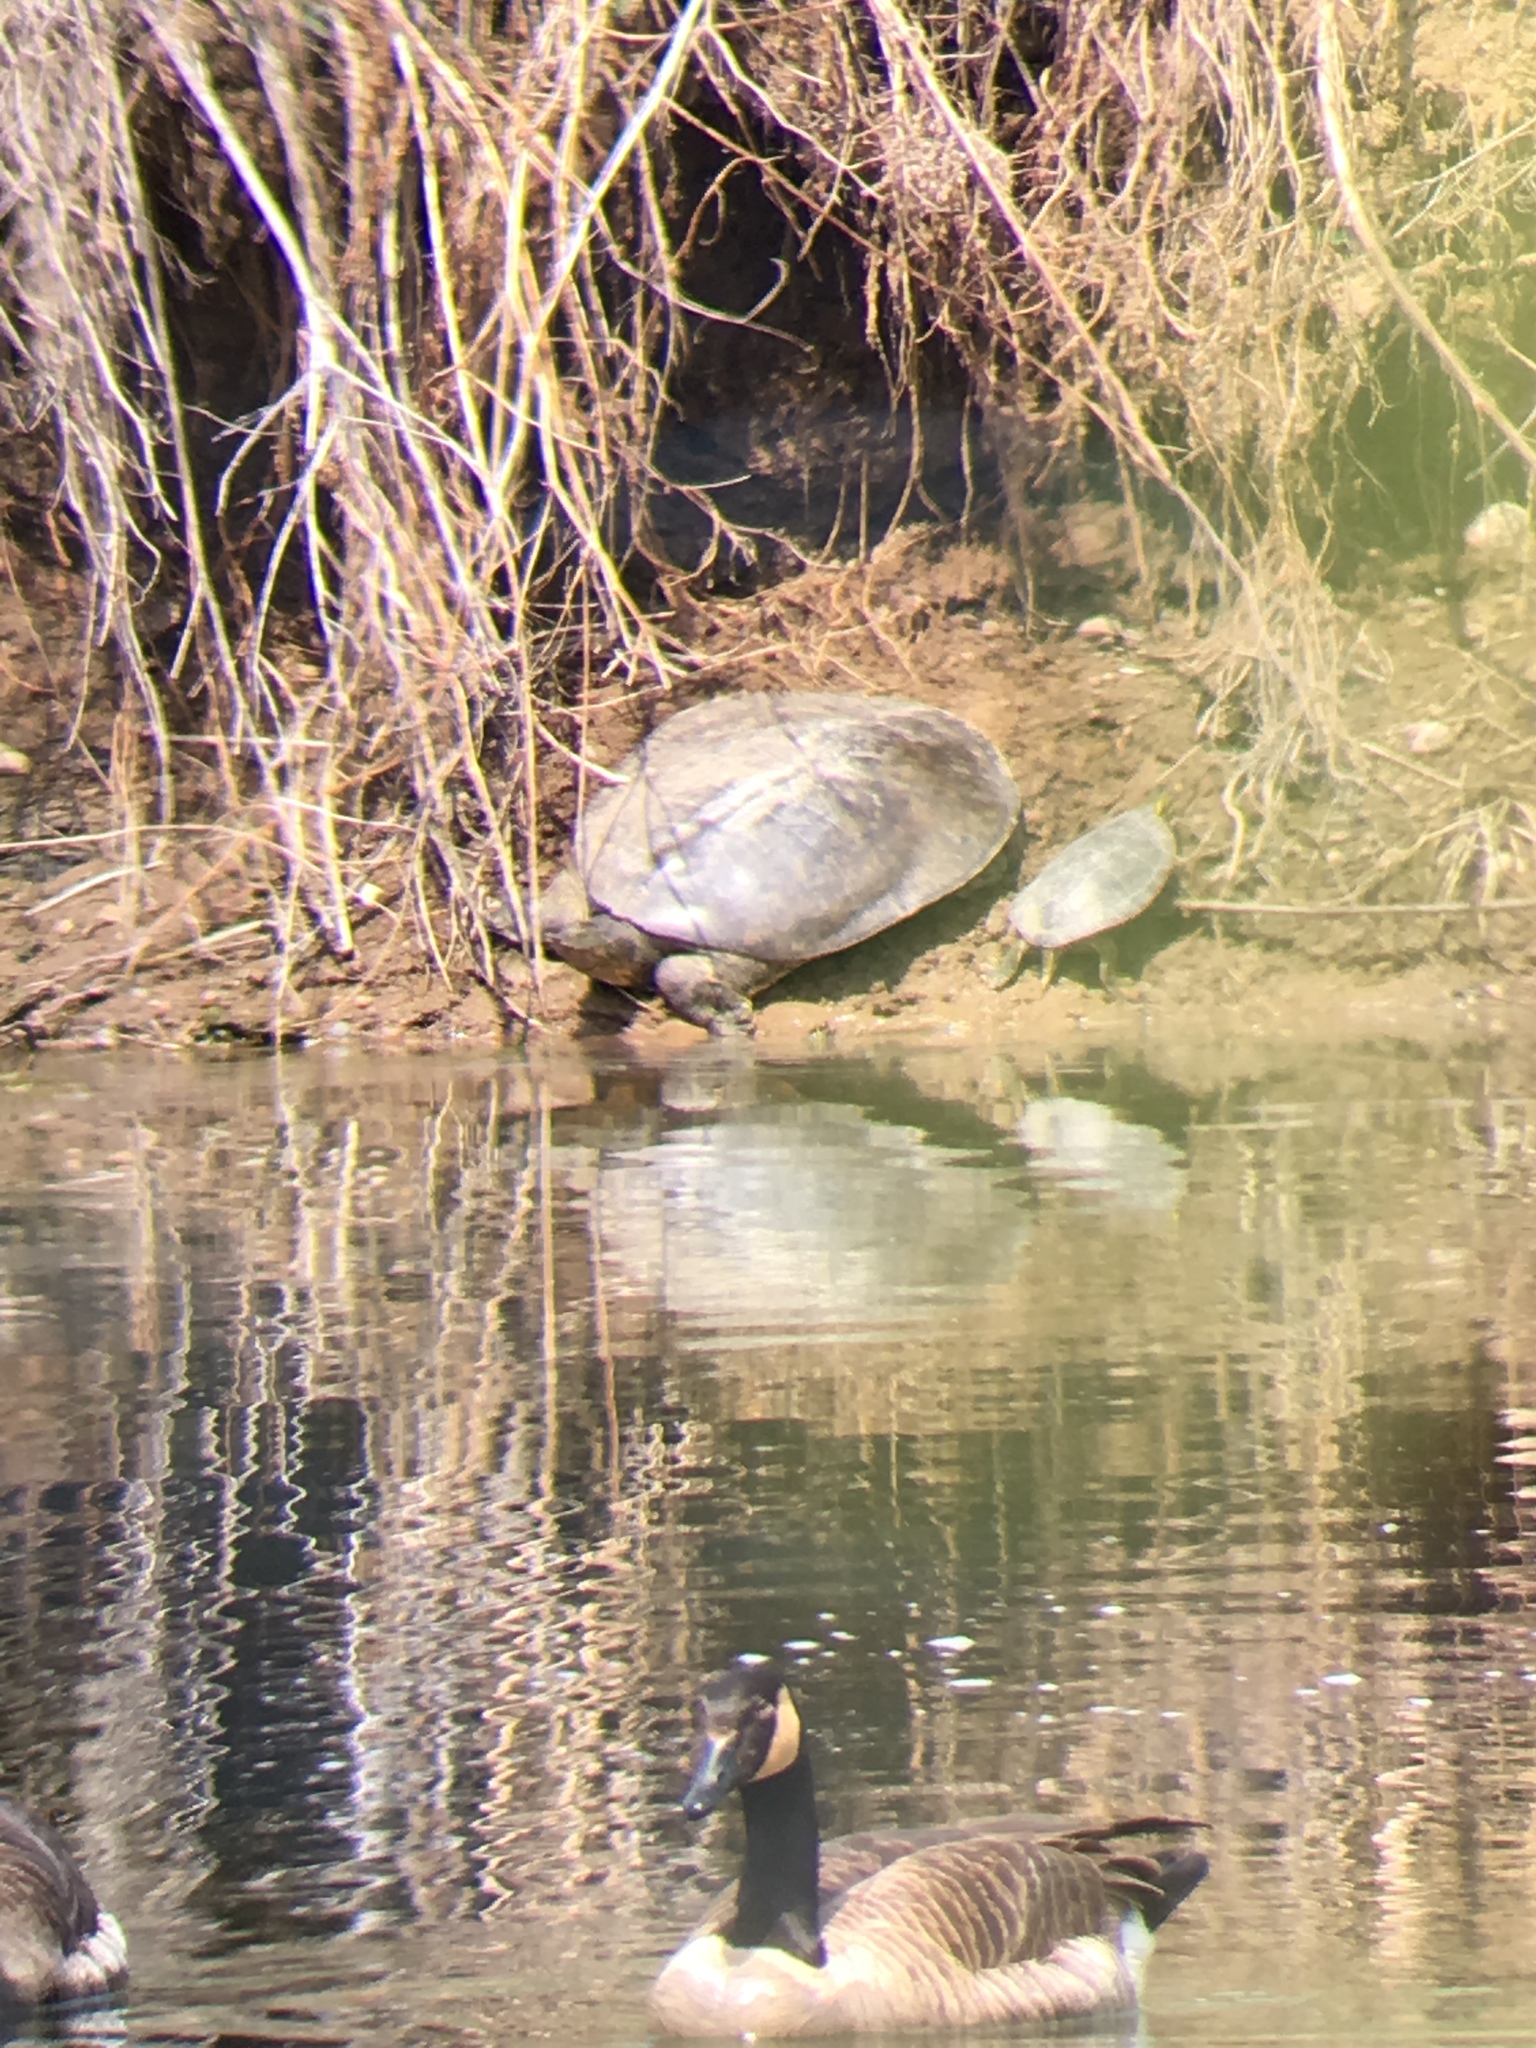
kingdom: Animalia
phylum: Chordata
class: Testudines
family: Trionychidae
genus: Apalone
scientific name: Apalone spinifera
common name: Spiny softshell turtle
